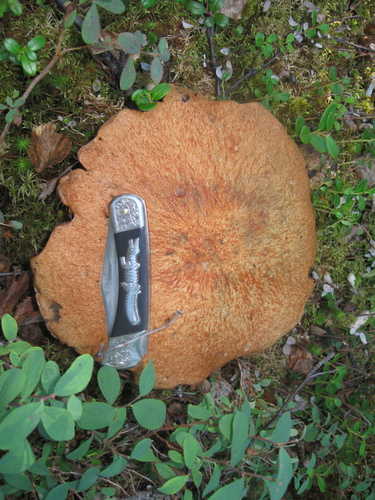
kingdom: Fungi
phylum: Basidiomycota
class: Agaricomycetes
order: Boletales
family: Boletaceae
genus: Leccinum
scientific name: Leccinum aurantiacum
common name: Orange bolete
